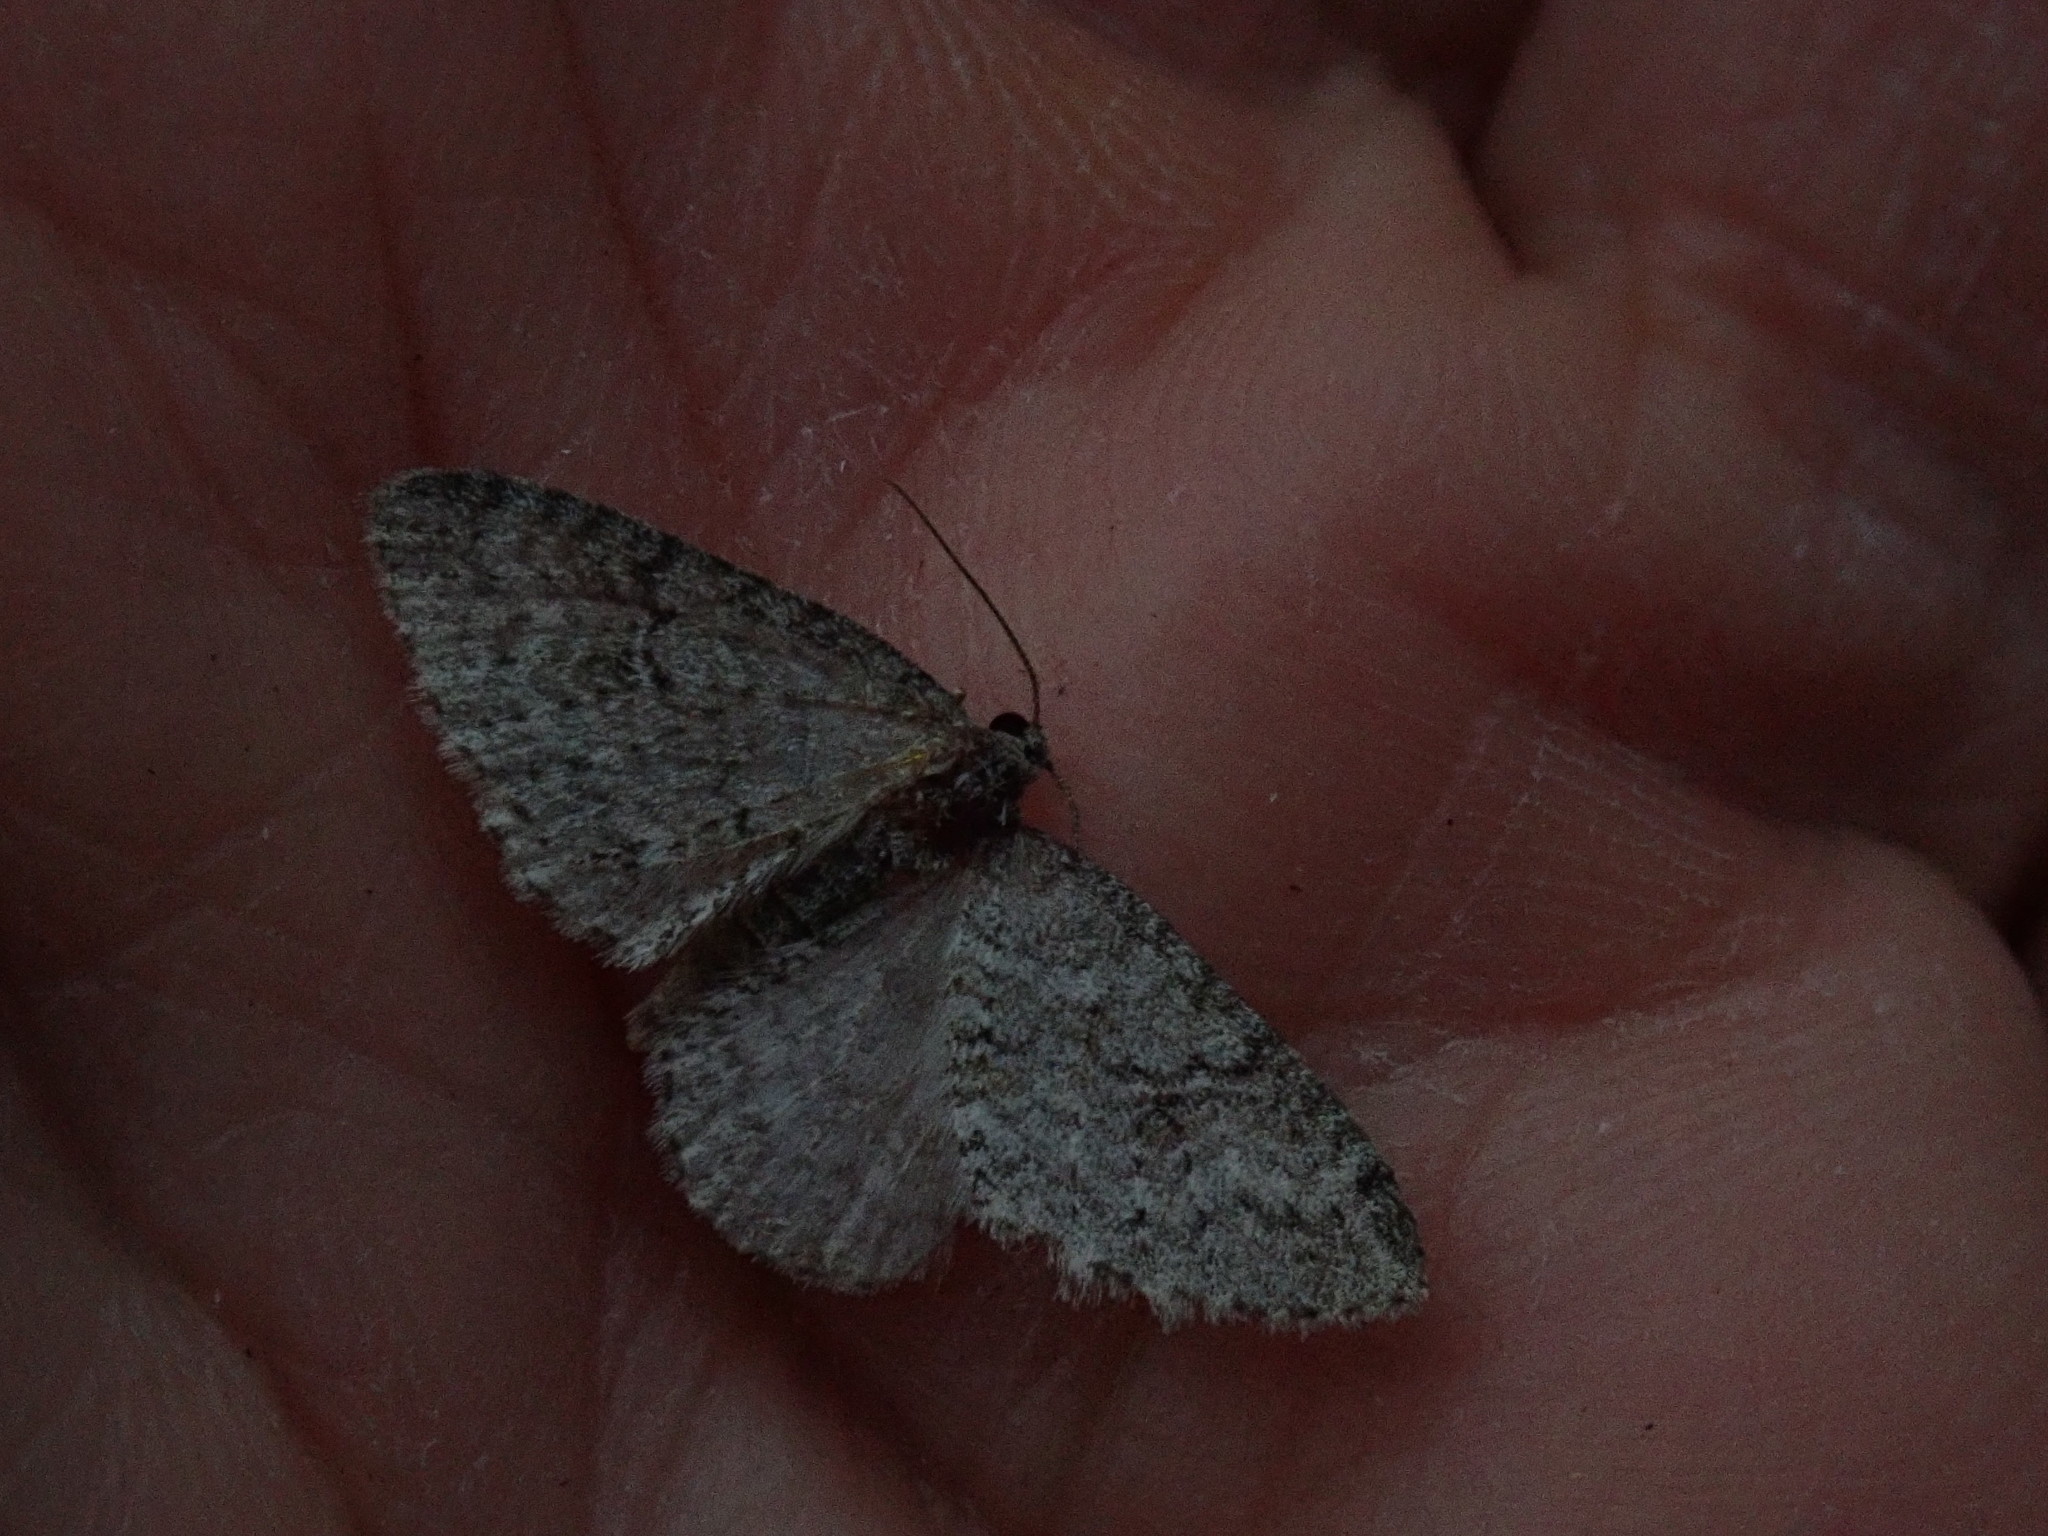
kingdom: Animalia
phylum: Arthropoda
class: Insecta
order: Lepidoptera
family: Geometridae
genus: Venusia
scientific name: Venusia comptaria
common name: Brown-shaded carpet
